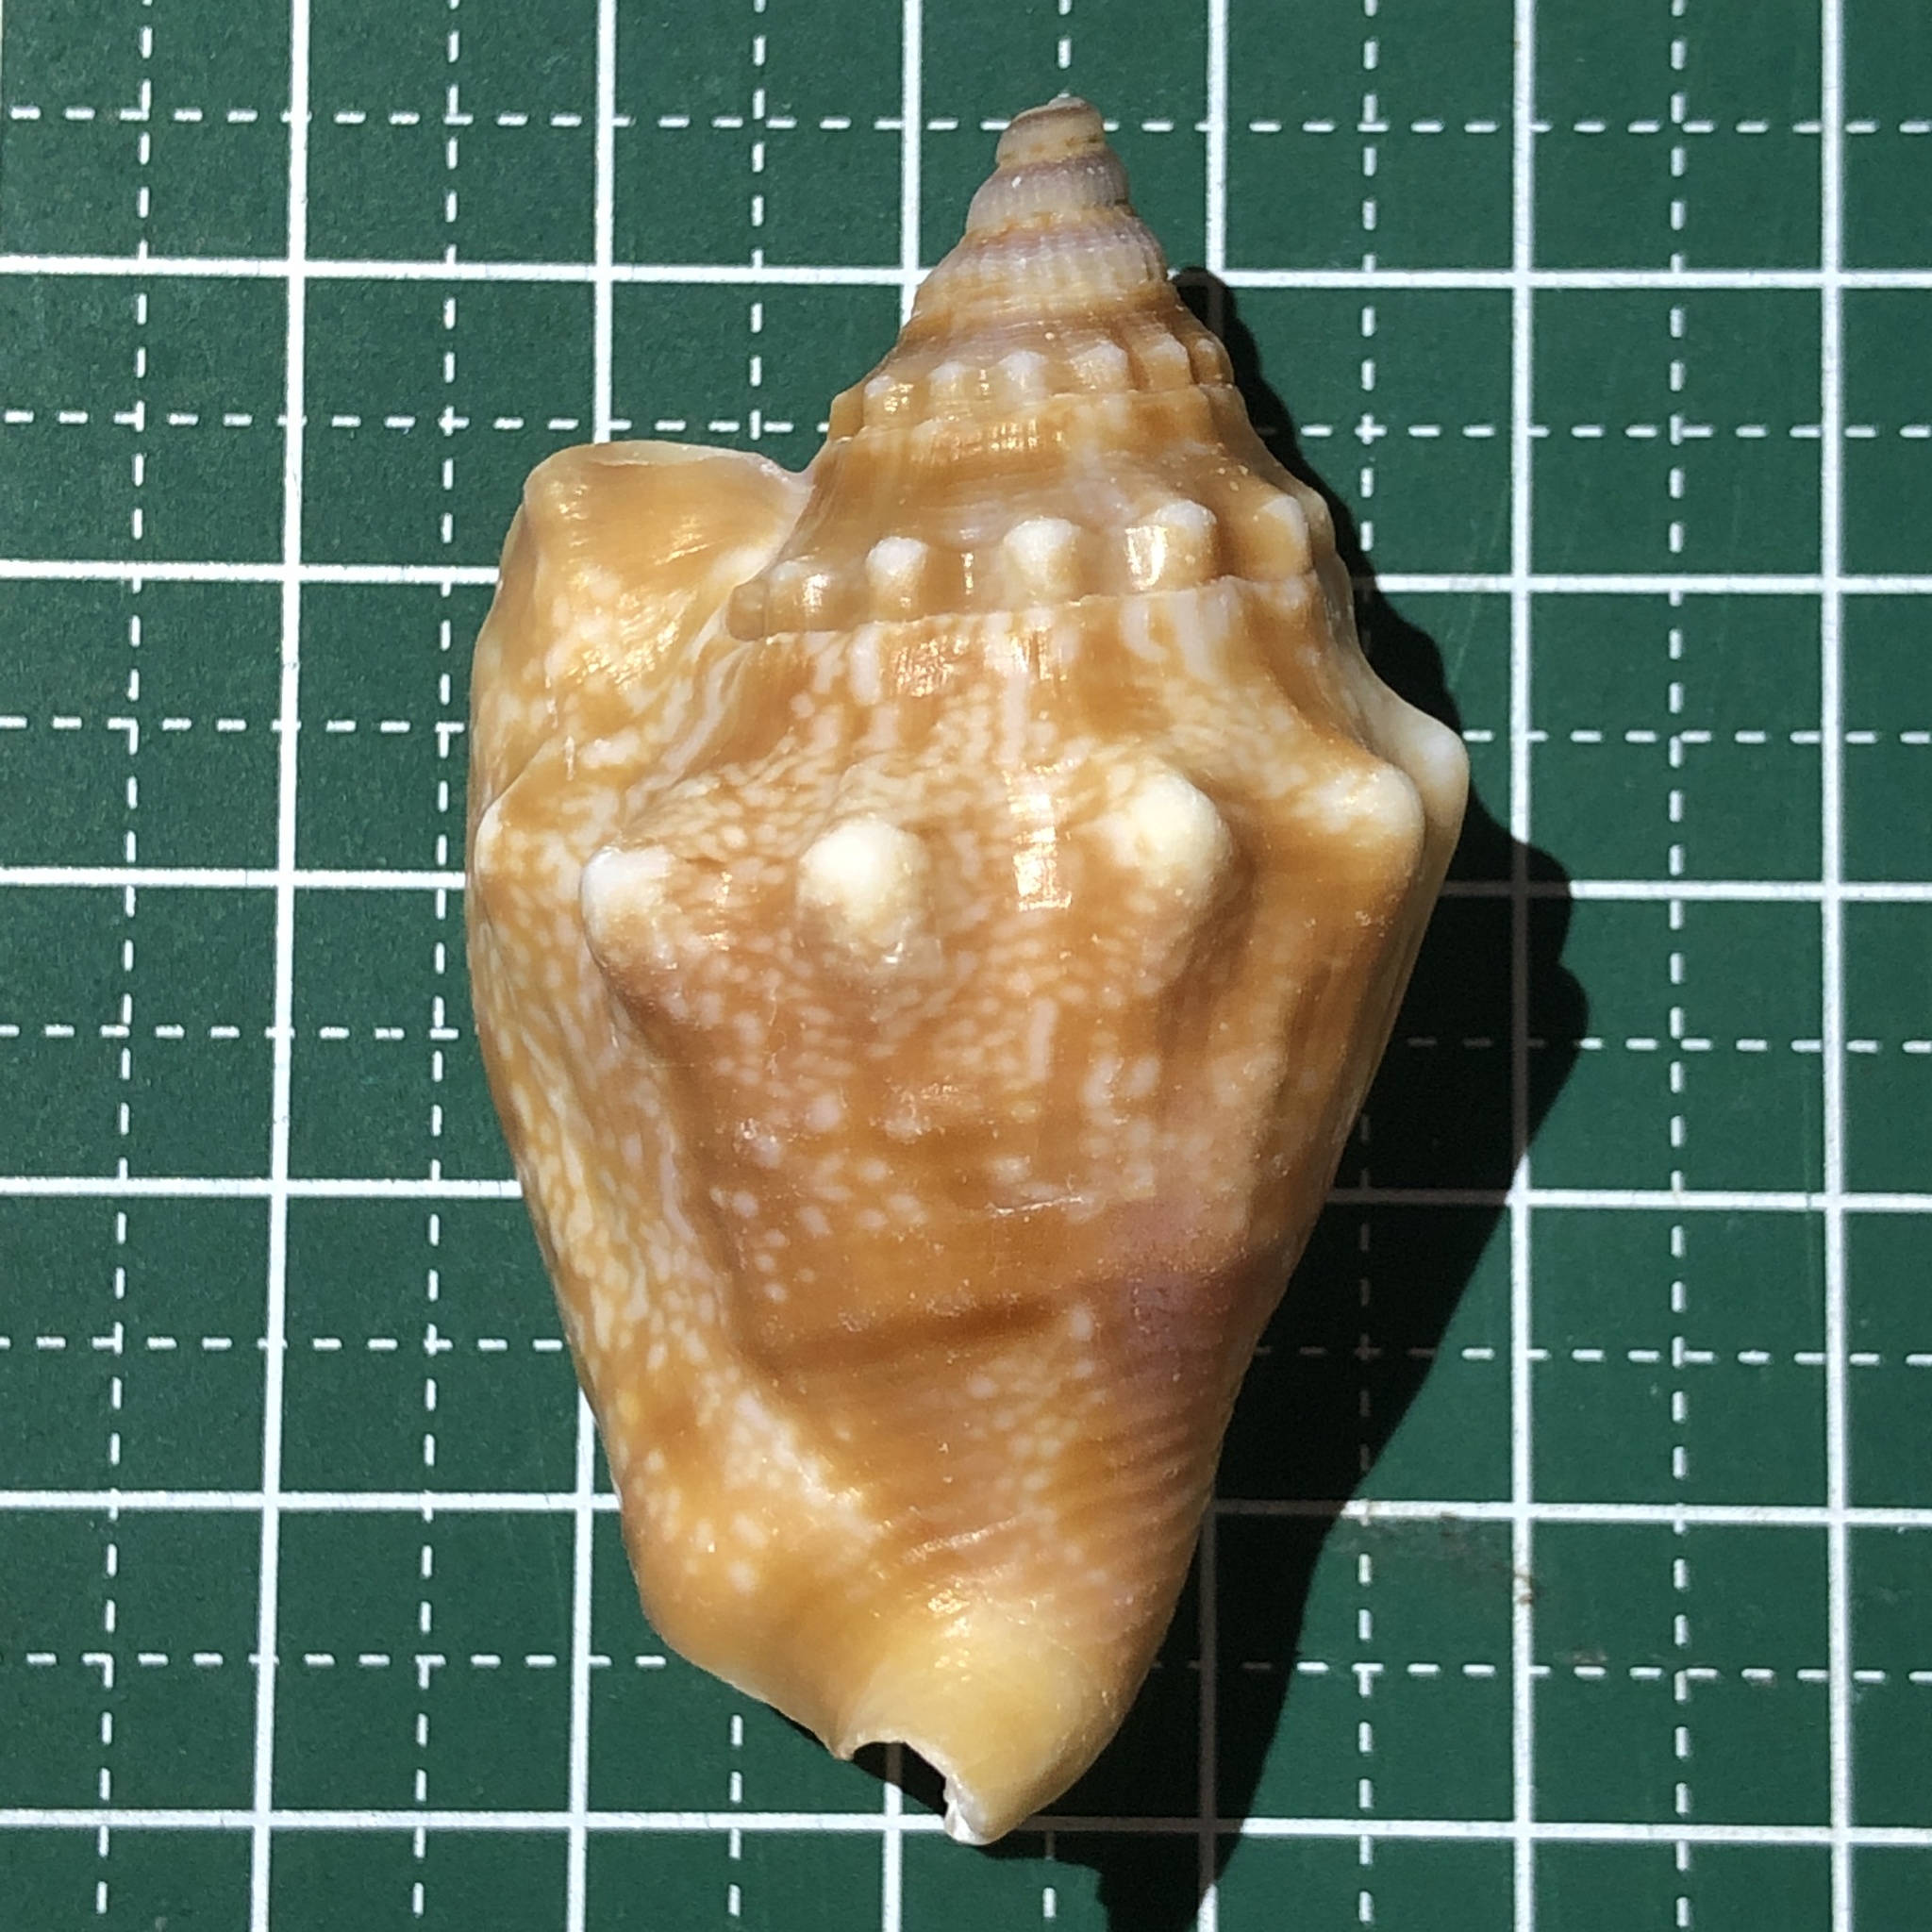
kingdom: Animalia
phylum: Mollusca
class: Gastropoda
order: Littorinimorpha
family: Strombidae
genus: Euprotomus
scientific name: Euprotomus aurisdianae
